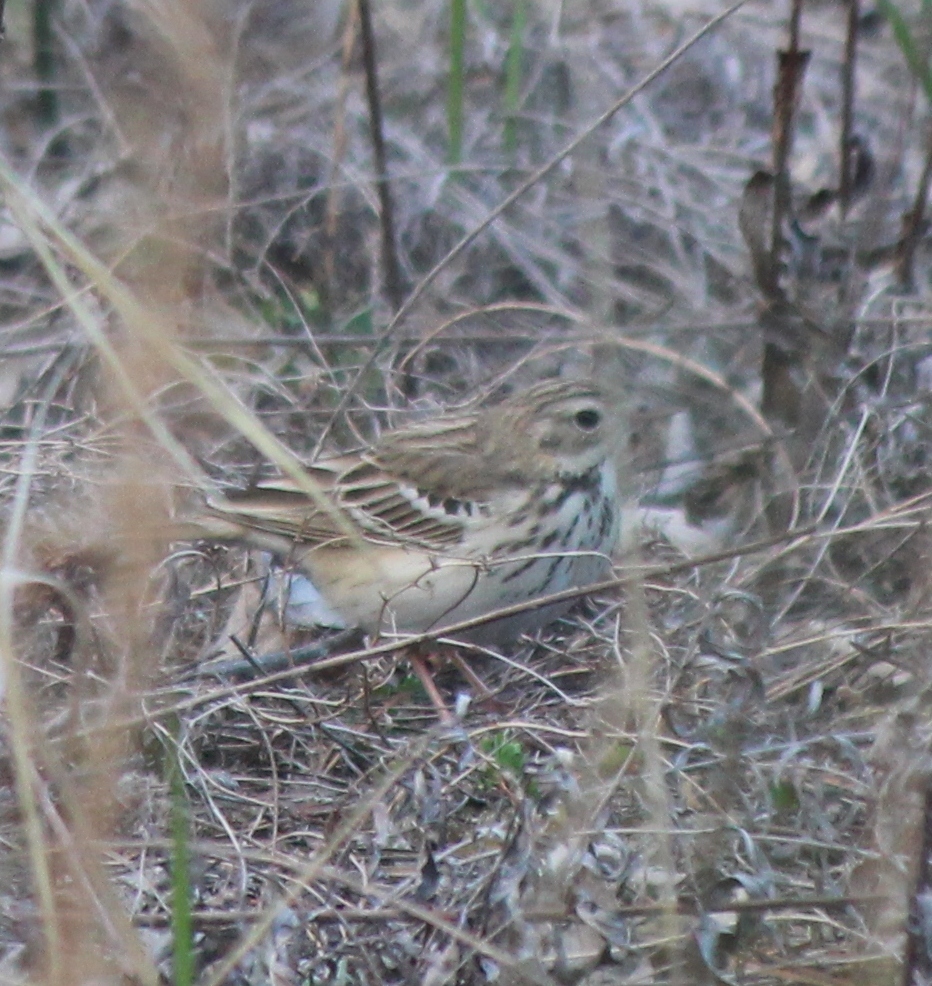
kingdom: Animalia
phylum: Chordata
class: Aves
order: Passeriformes
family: Motacillidae
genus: Anthus
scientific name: Anthus trivialis
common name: Tree pipit
